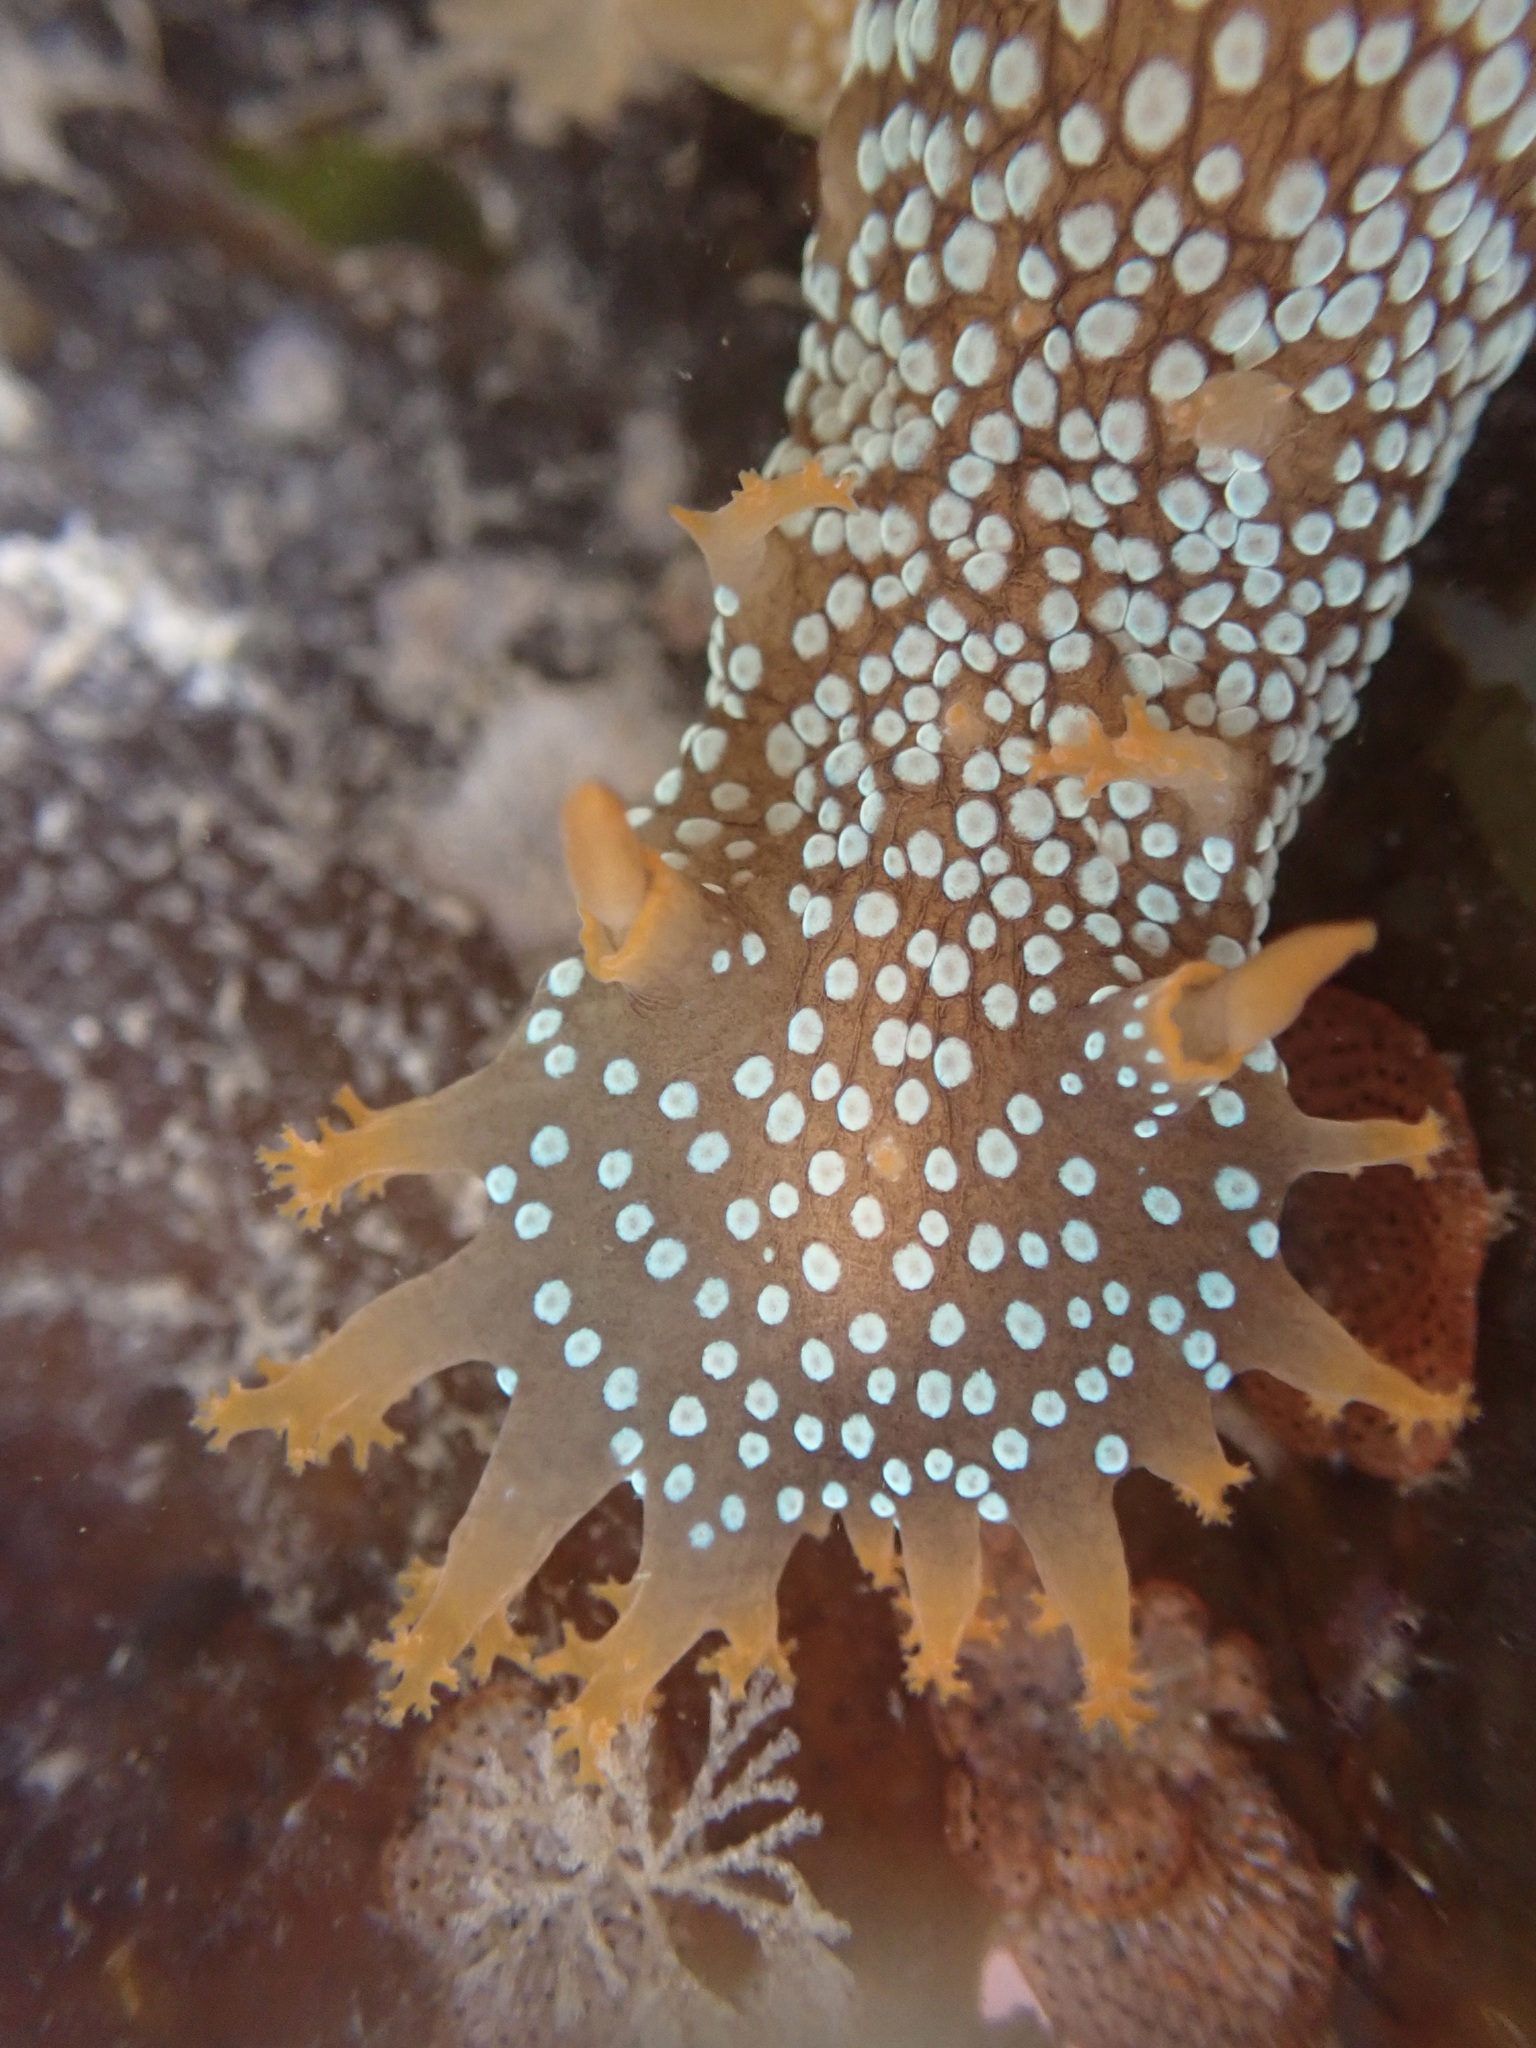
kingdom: Animalia
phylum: Mollusca
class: Gastropoda
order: Nudibranchia
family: Polyceridae
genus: Triopha
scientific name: Triopha maculata
